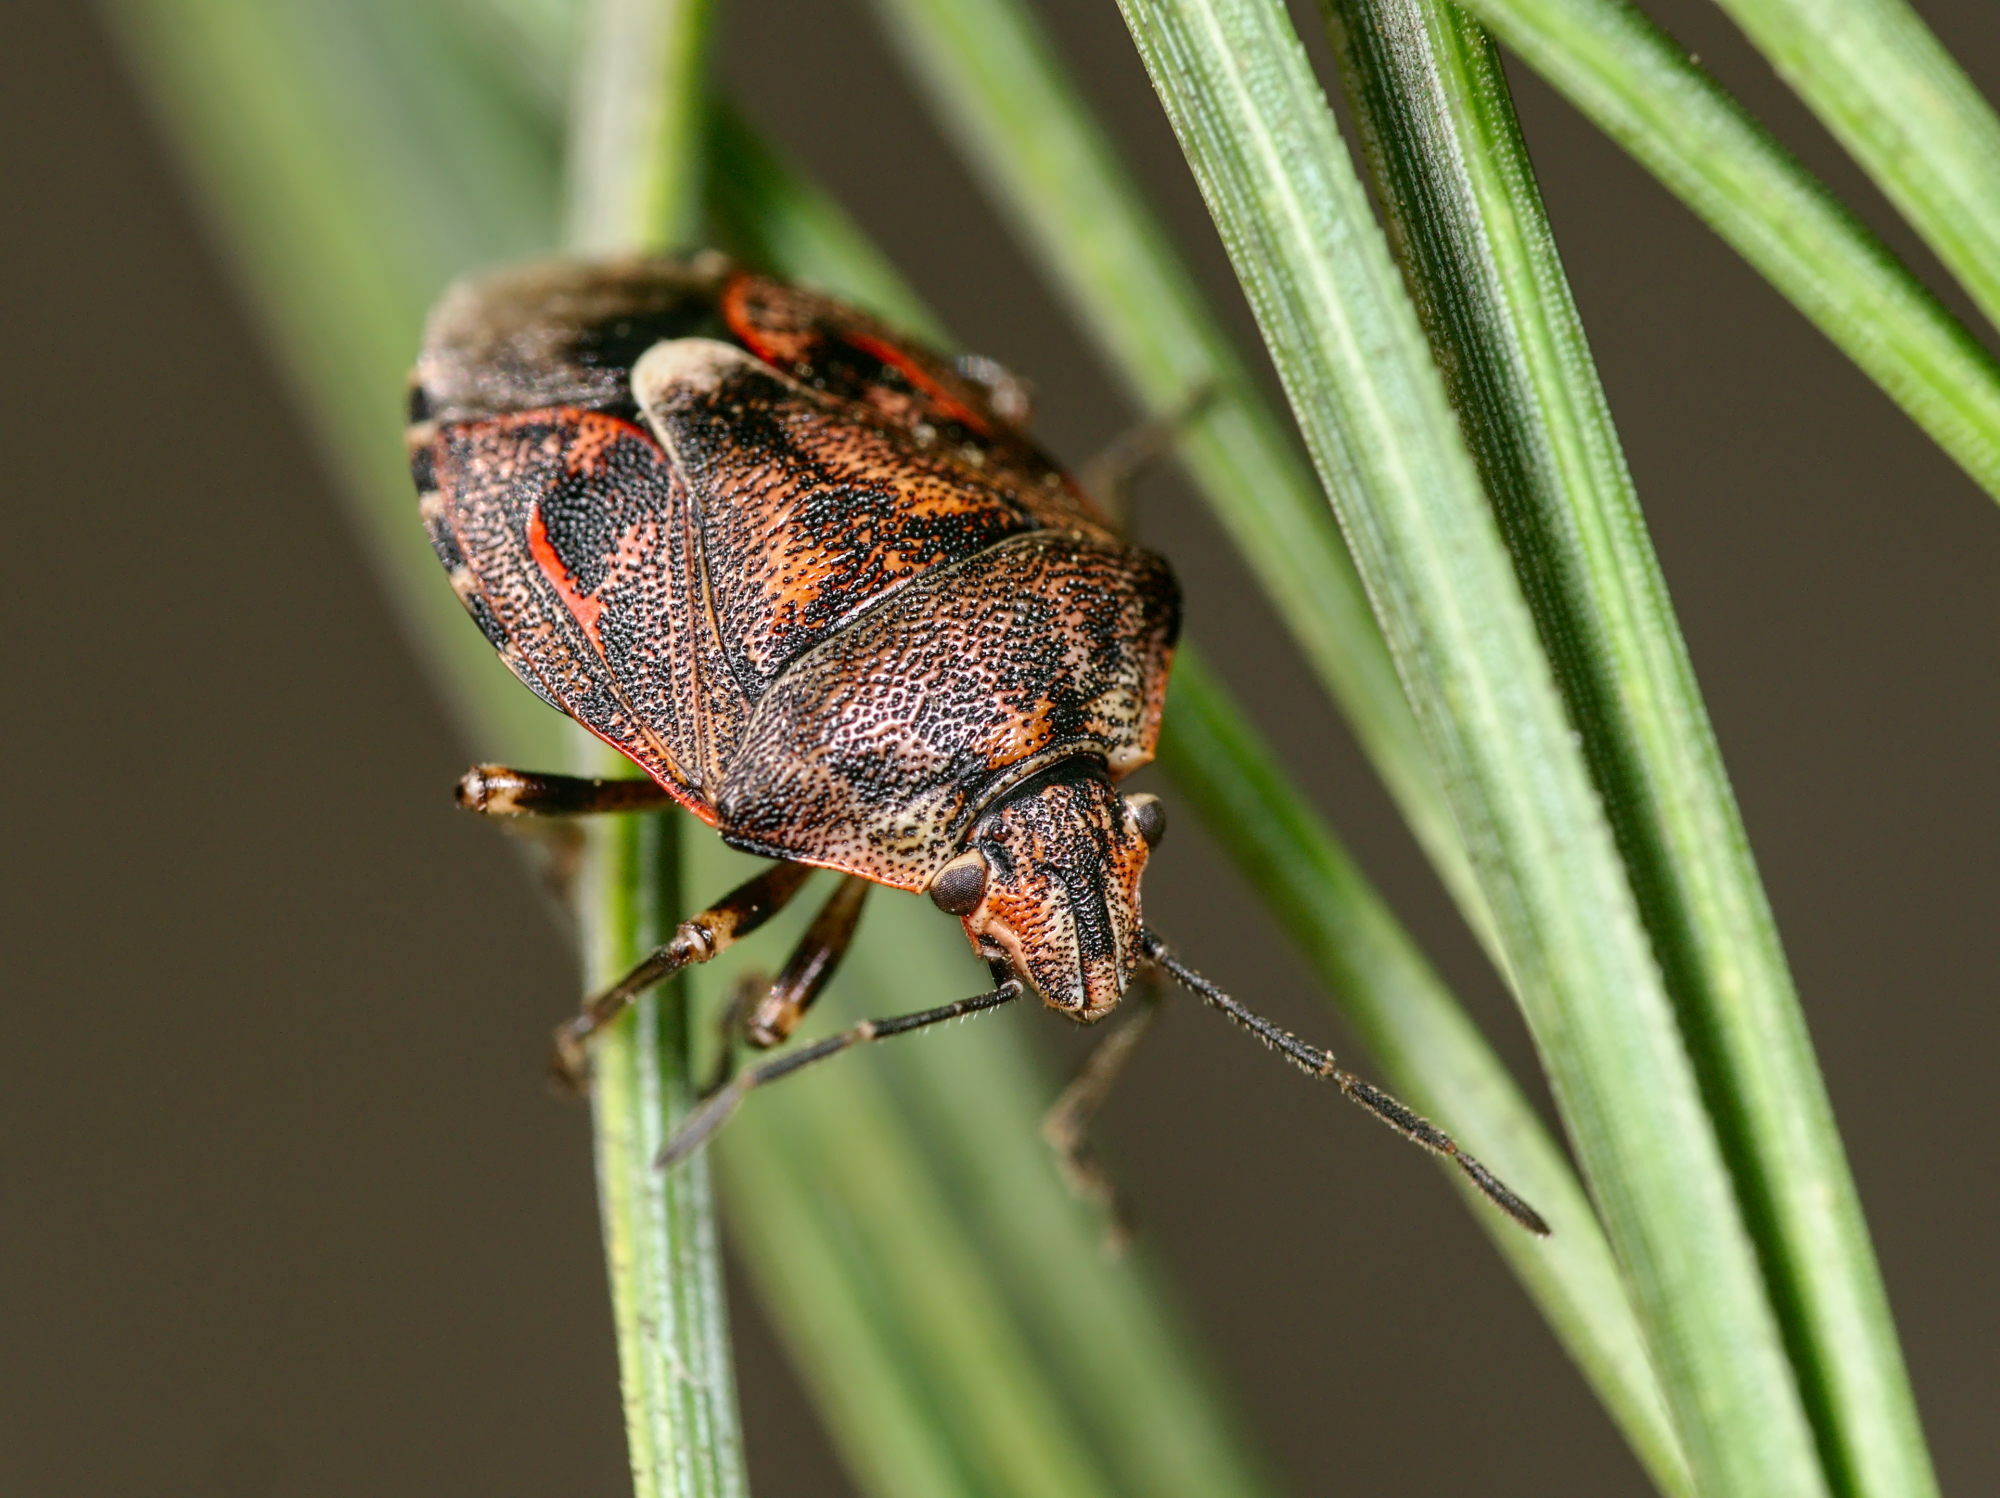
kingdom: Animalia
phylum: Arthropoda
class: Insecta
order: Hemiptera
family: Pentatomidae
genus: Holcogaster
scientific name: Holcogaster fibulata
